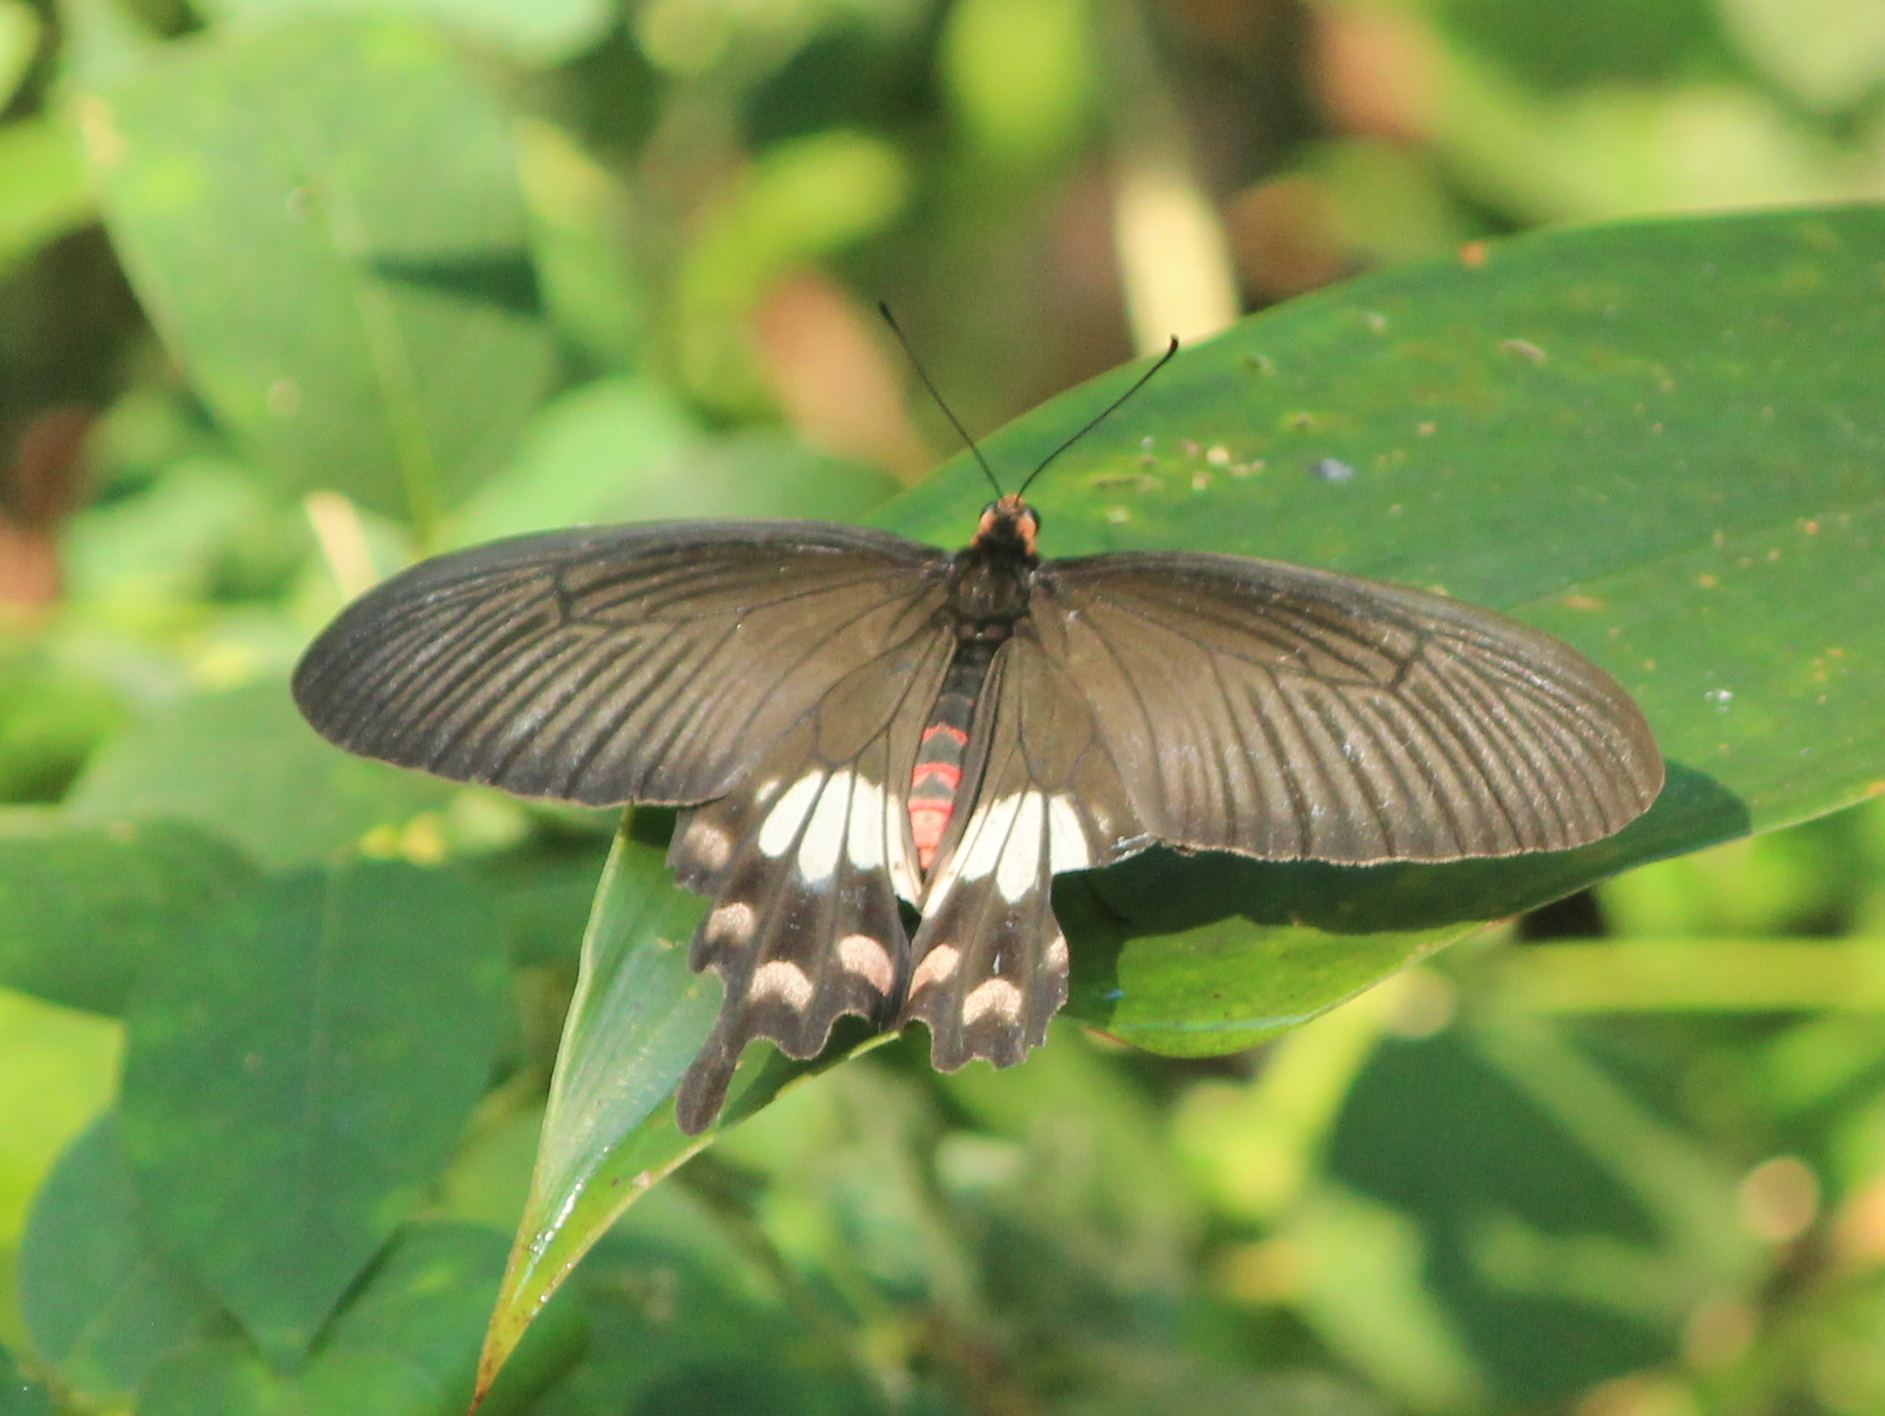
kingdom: Animalia
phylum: Arthropoda
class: Insecta
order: Lepidoptera
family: Papilionidae
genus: Pachliopta
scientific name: Pachliopta aristolochiae
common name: Common rose
